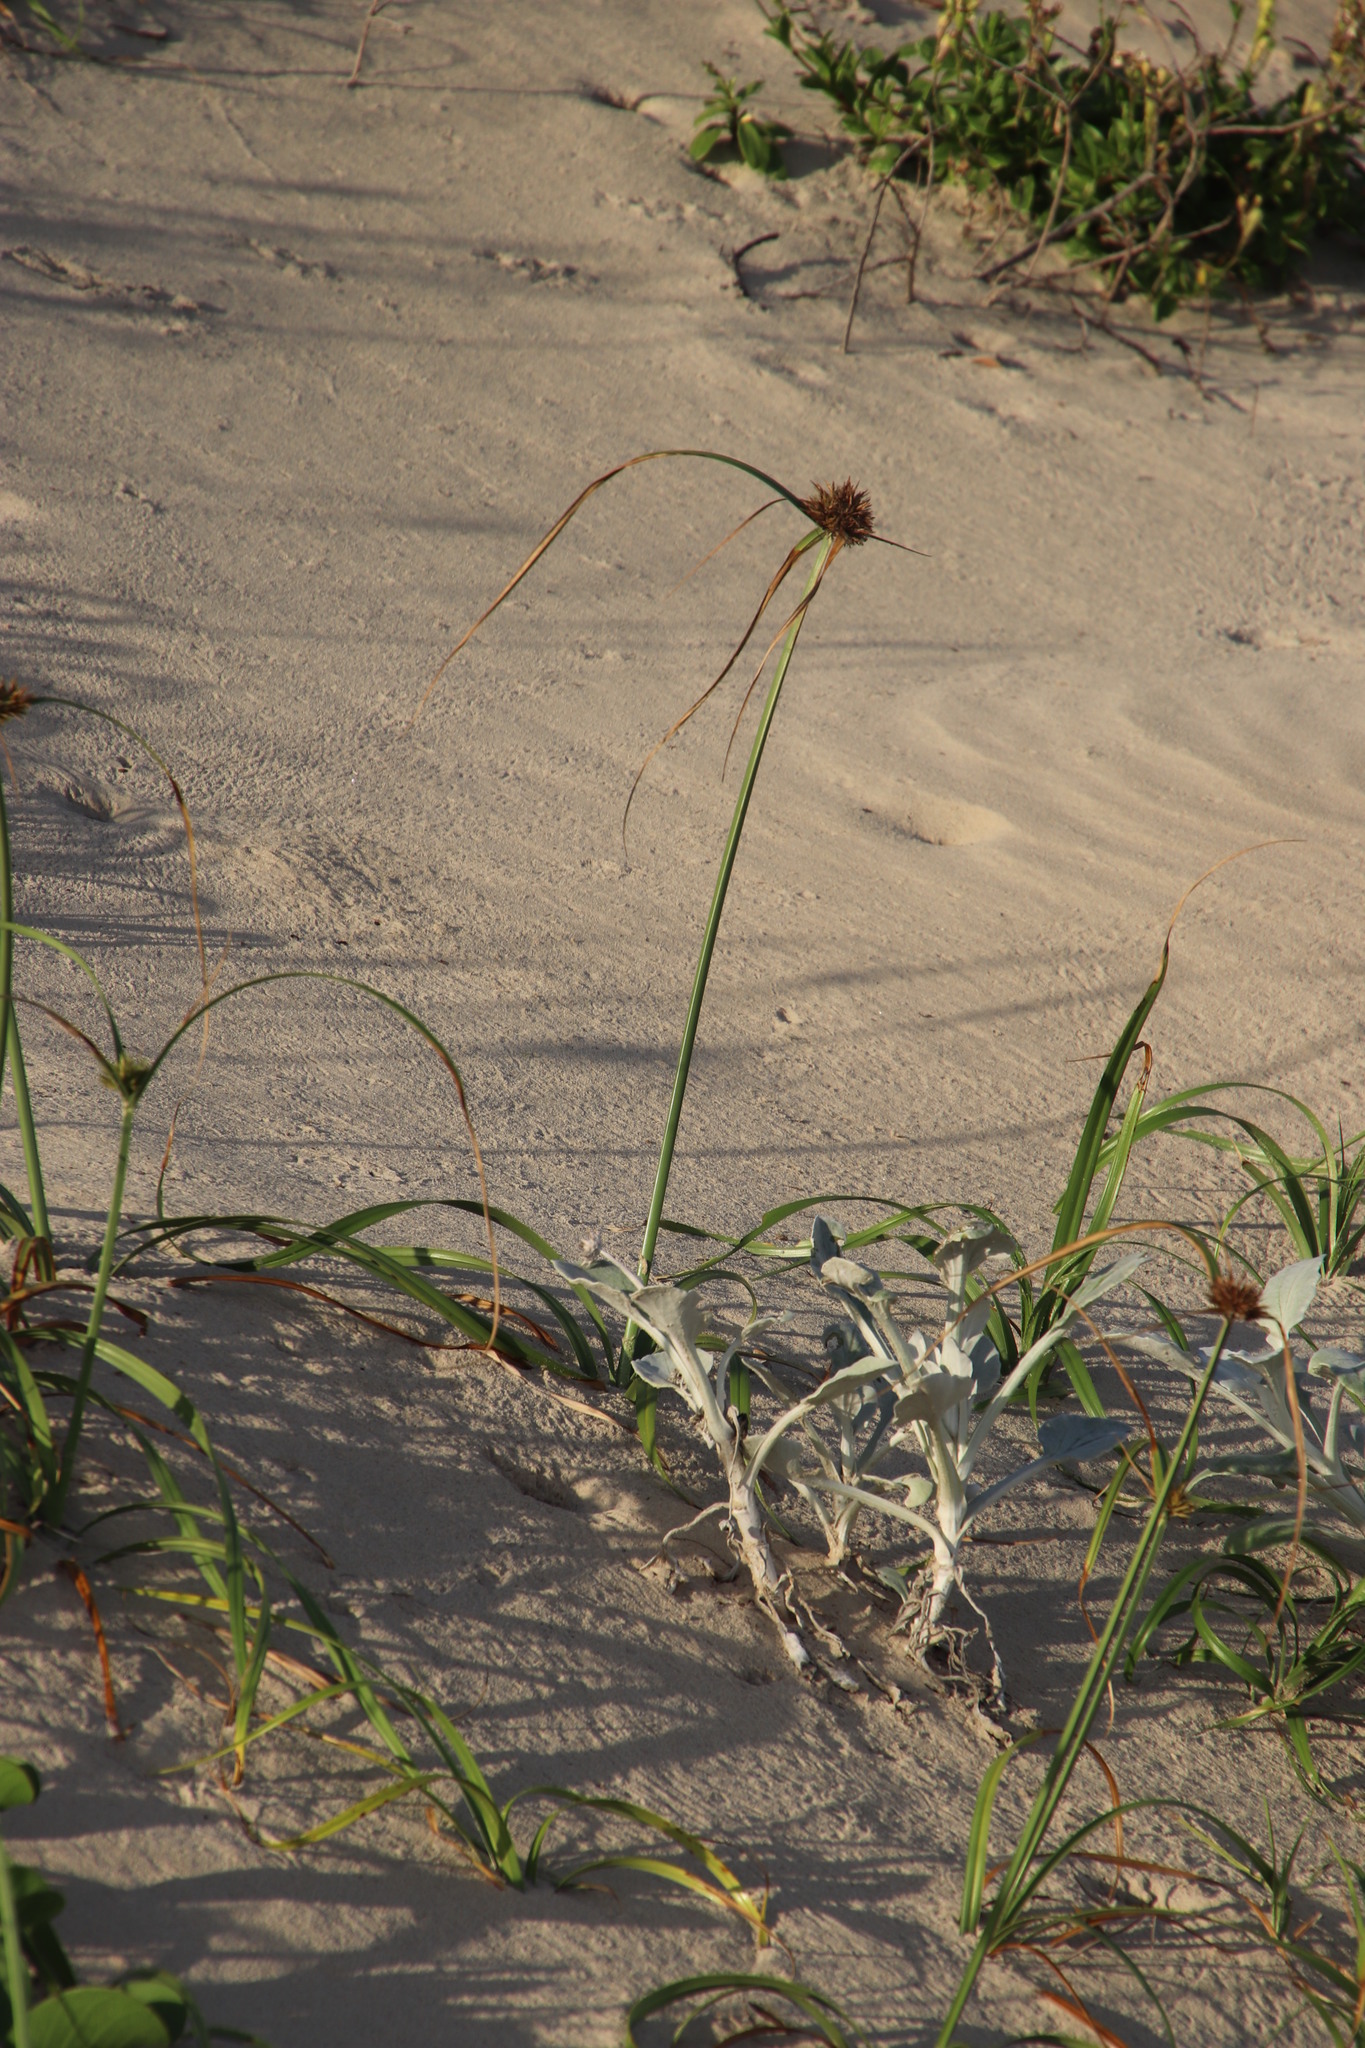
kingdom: Plantae
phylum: Tracheophyta
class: Liliopsida
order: Poales
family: Cyperaceae
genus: Cyperus
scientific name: Cyperus crassipes
